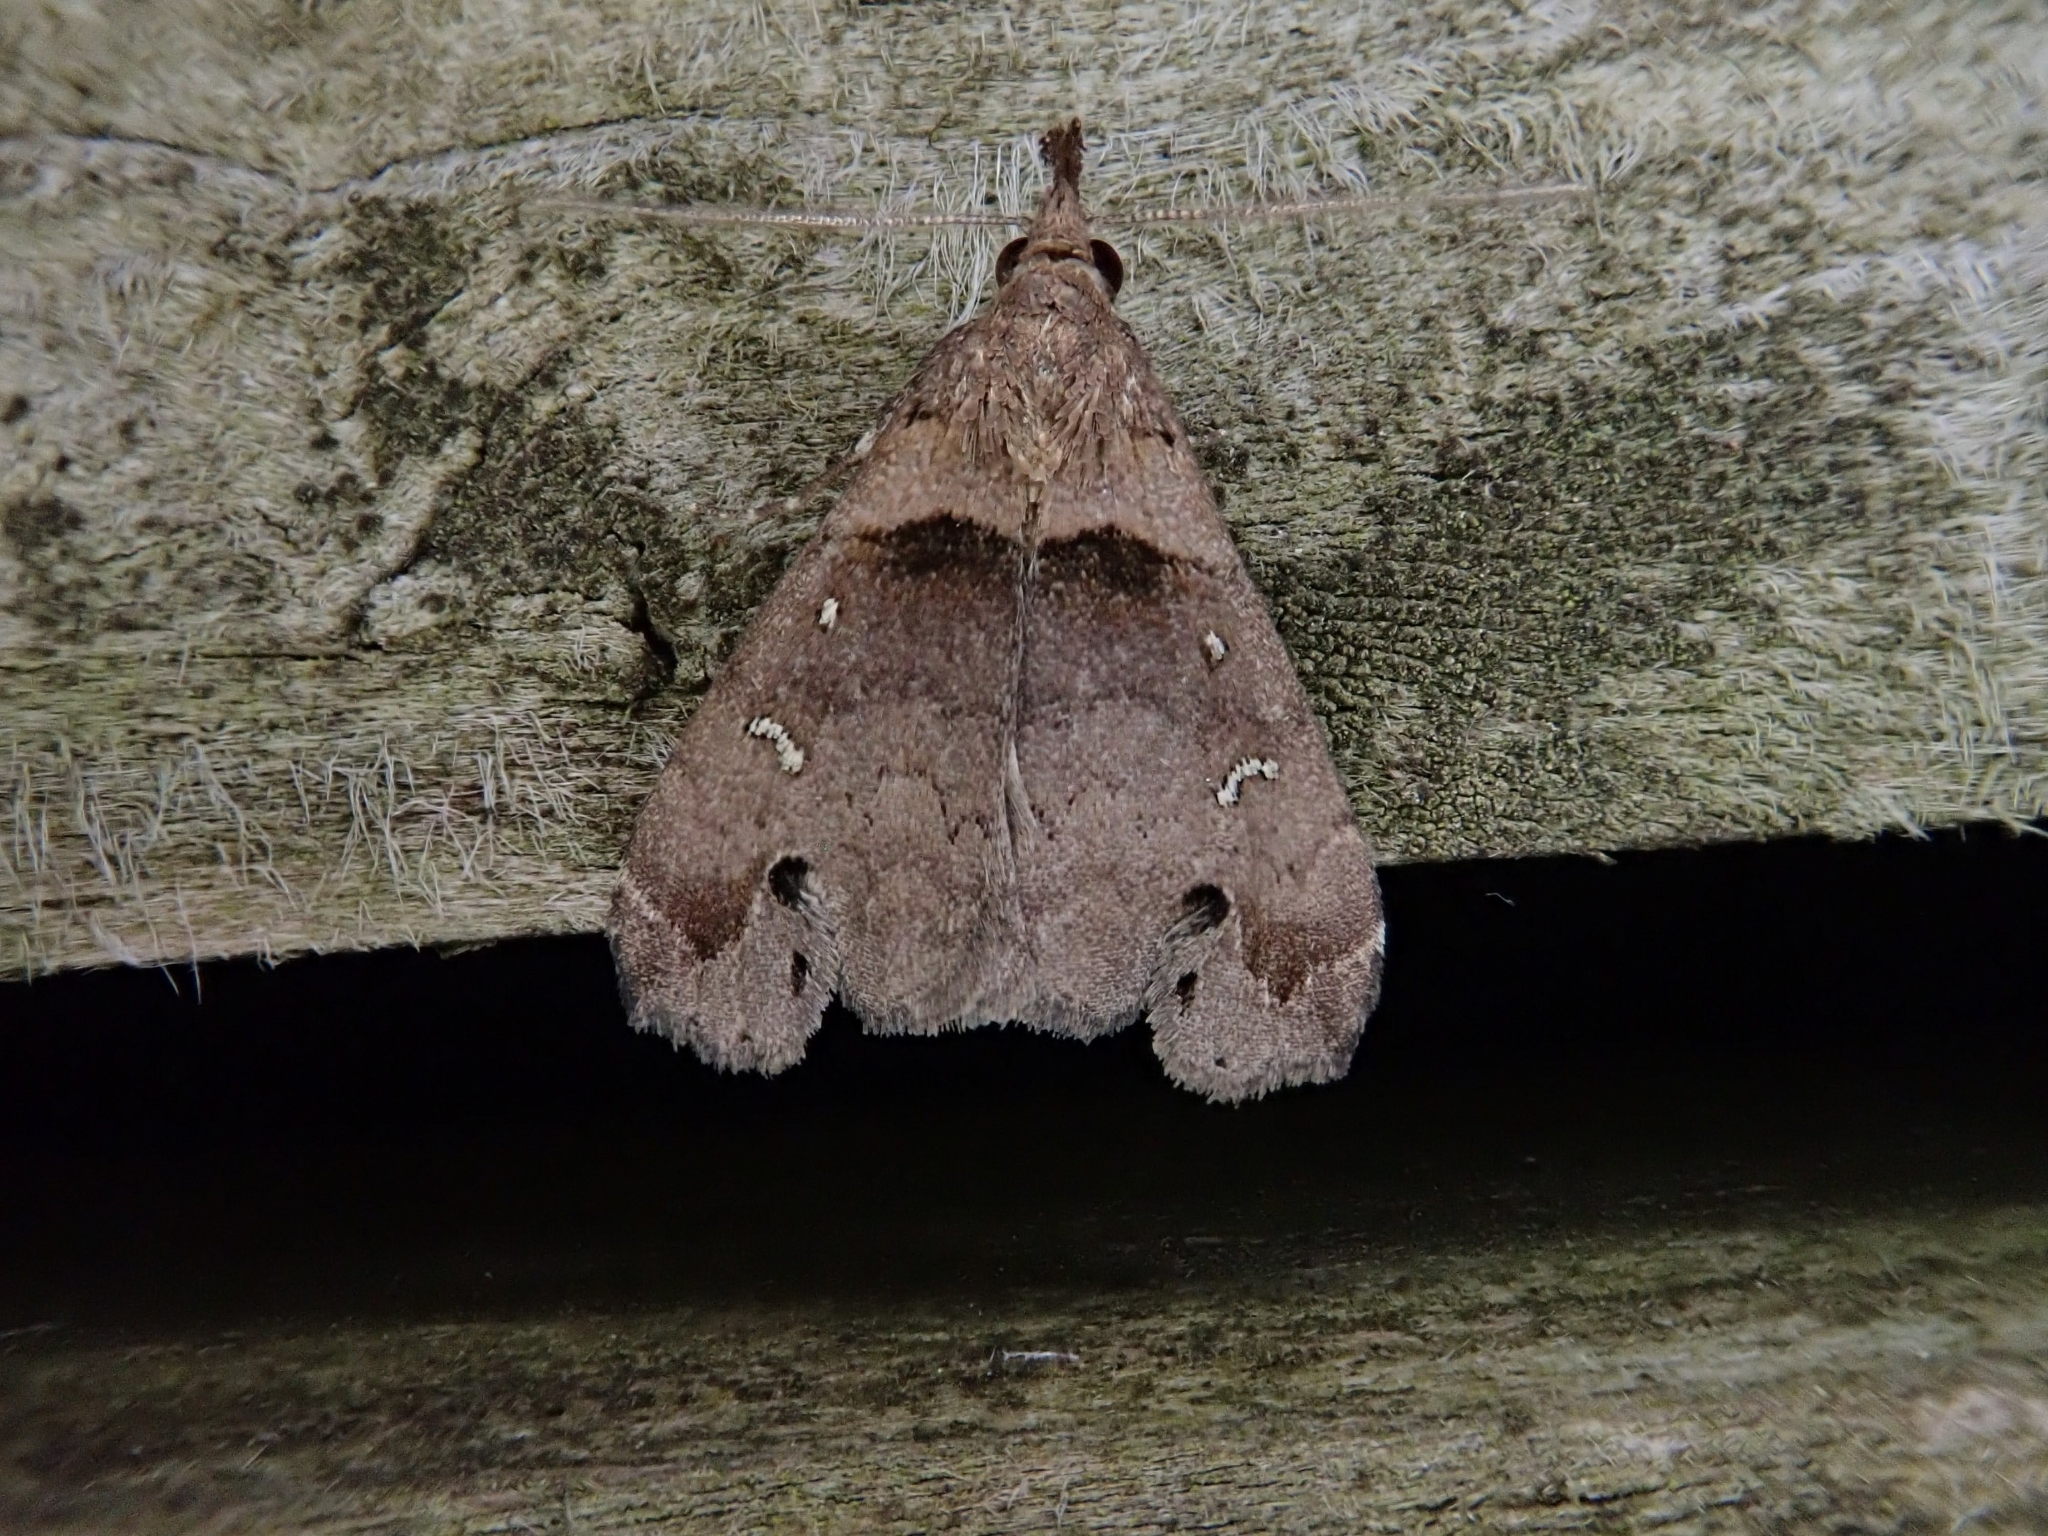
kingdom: Animalia
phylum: Arthropoda
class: Insecta
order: Lepidoptera
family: Erebidae
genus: Lascoria
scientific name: Lascoria ambigualis
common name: Ambiguous moth
